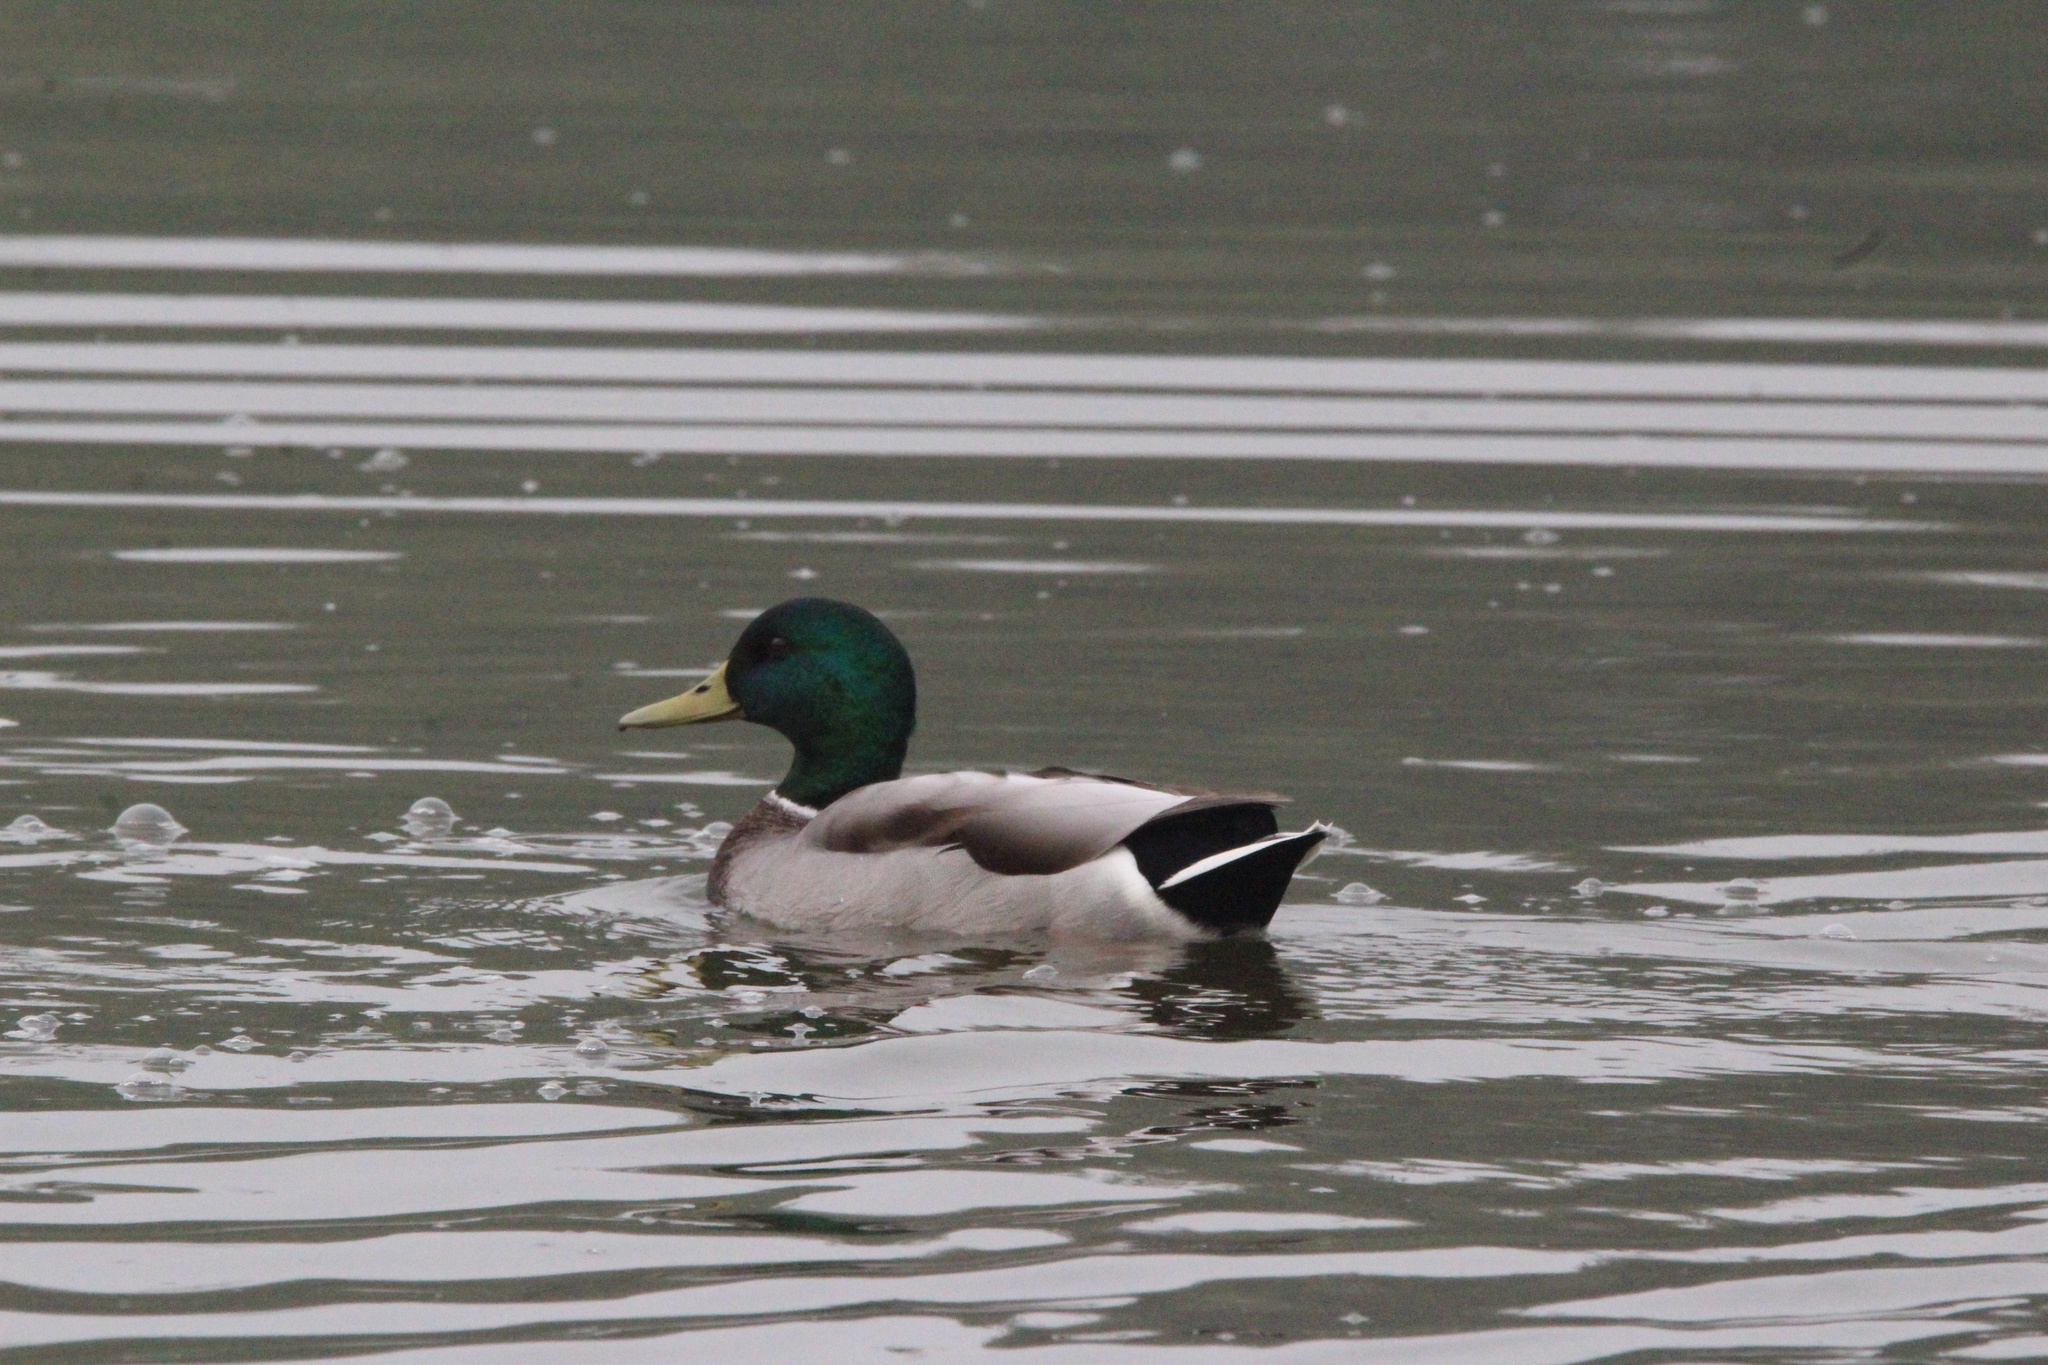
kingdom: Animalia
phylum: Chordata
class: Aves
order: Anseriformes
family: Anatidae
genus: Anas
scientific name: Anas platyrhynchos
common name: Mallard
